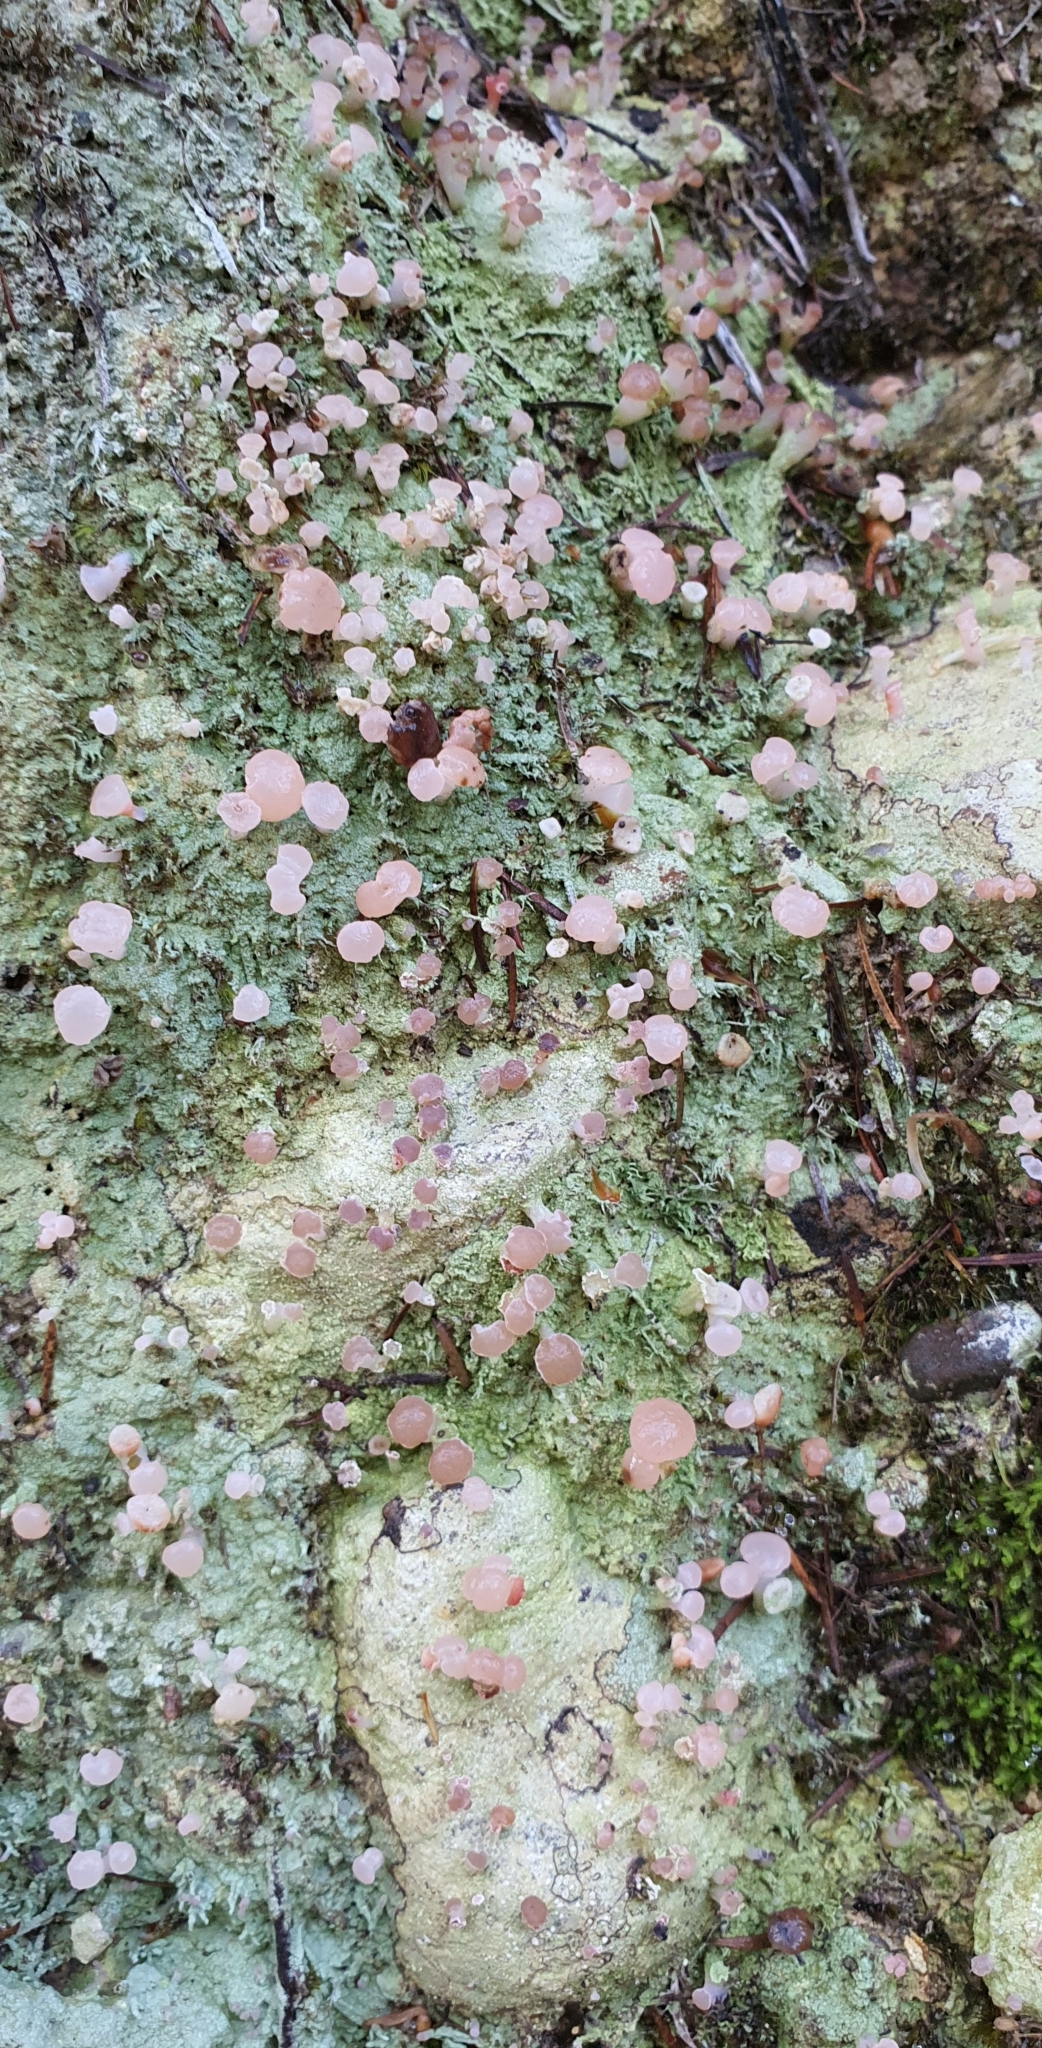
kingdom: Fungi
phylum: Ascomycota
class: Lecanoromycetes
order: Baeomycetales
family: Baeomycetaceae
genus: Baeomyces
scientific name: Baeomyces heteromorphus
